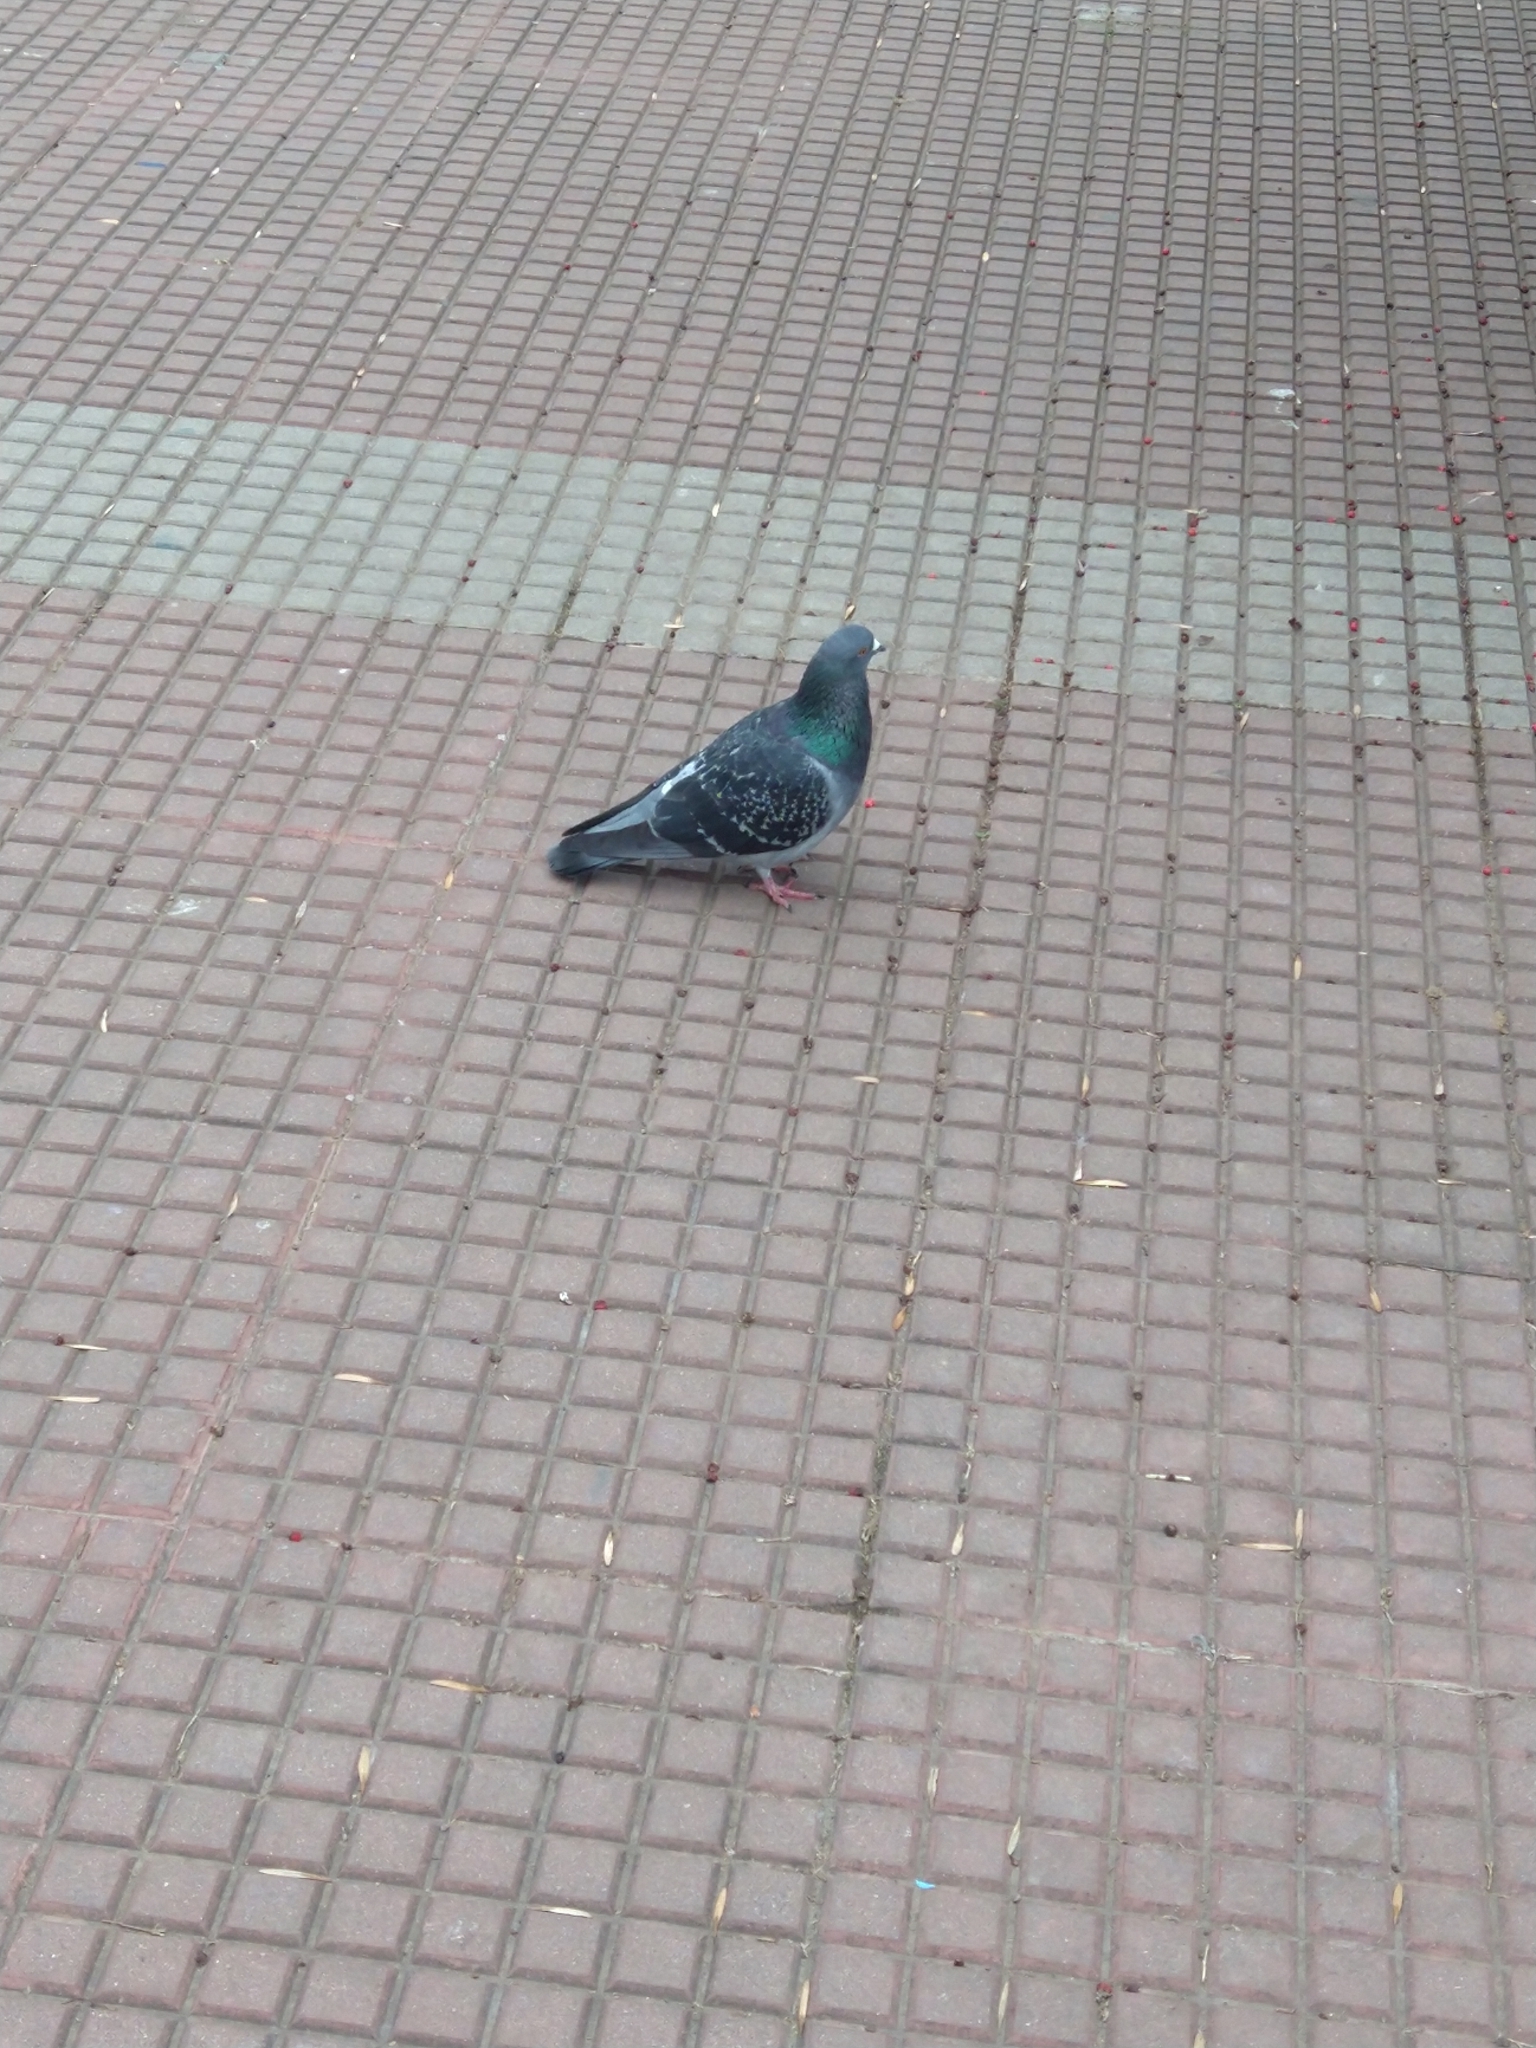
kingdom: Animalia
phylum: Chordata
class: Aves
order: Columbiformes
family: Columbidae
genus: Columba
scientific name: Columba livia
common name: Rock pigeon
